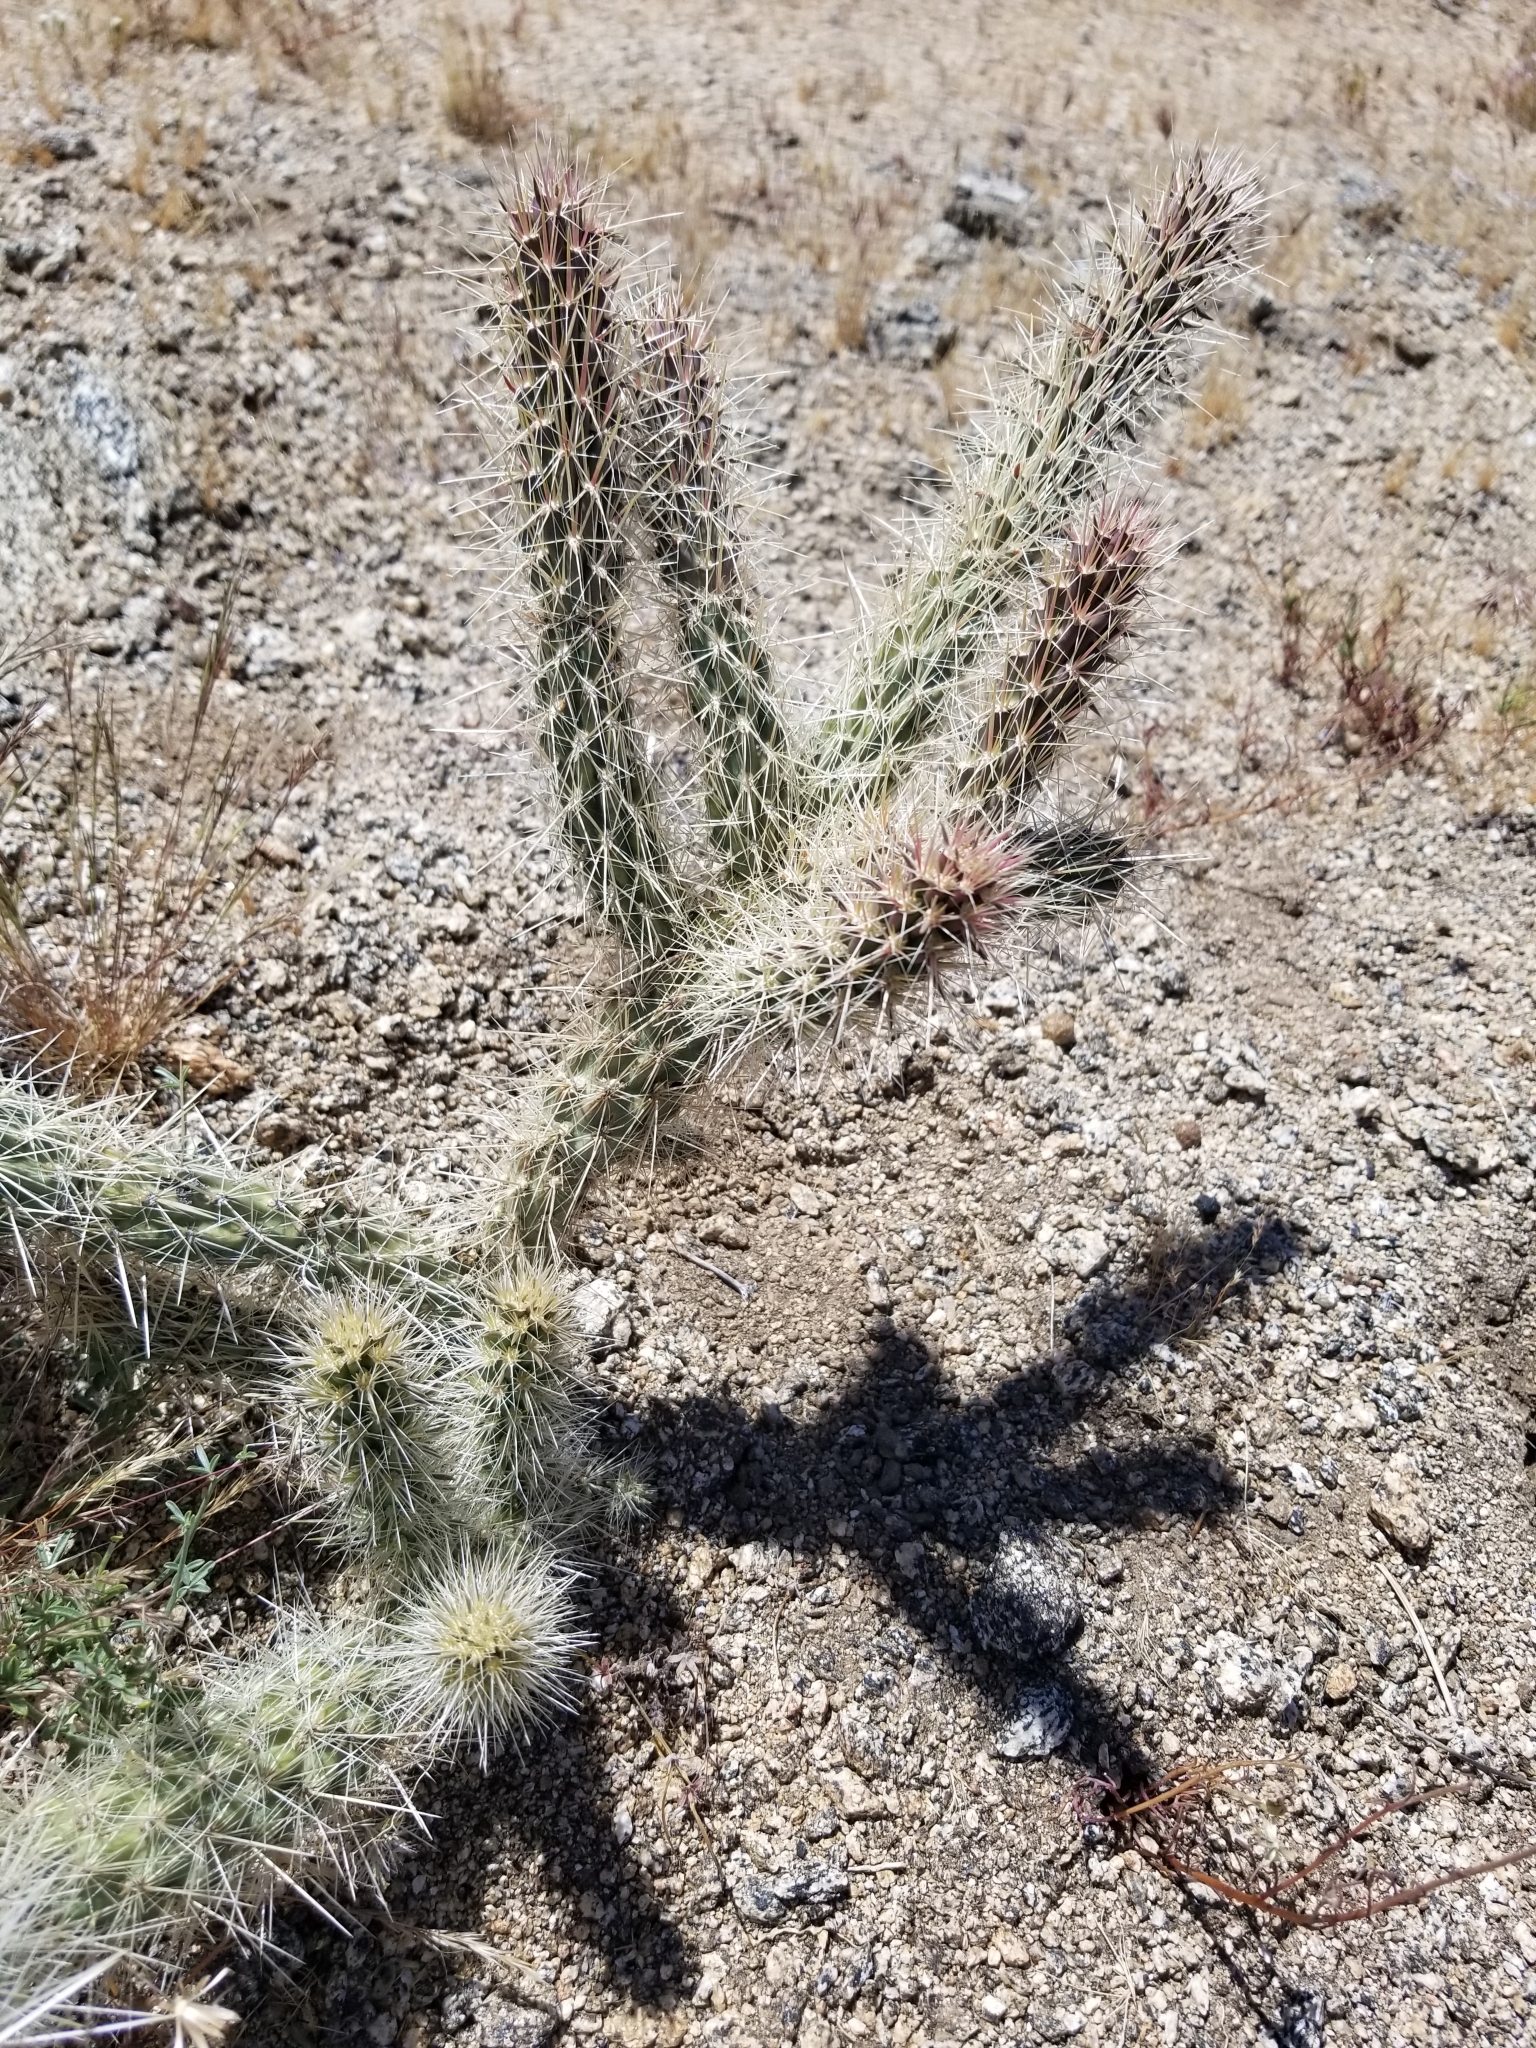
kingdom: Plantae
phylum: Tracheophyta
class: Magnoliopsida
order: Caryophyllales
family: Cactaceae
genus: Cylindropuntia
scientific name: Cylindropuntia ganderi
